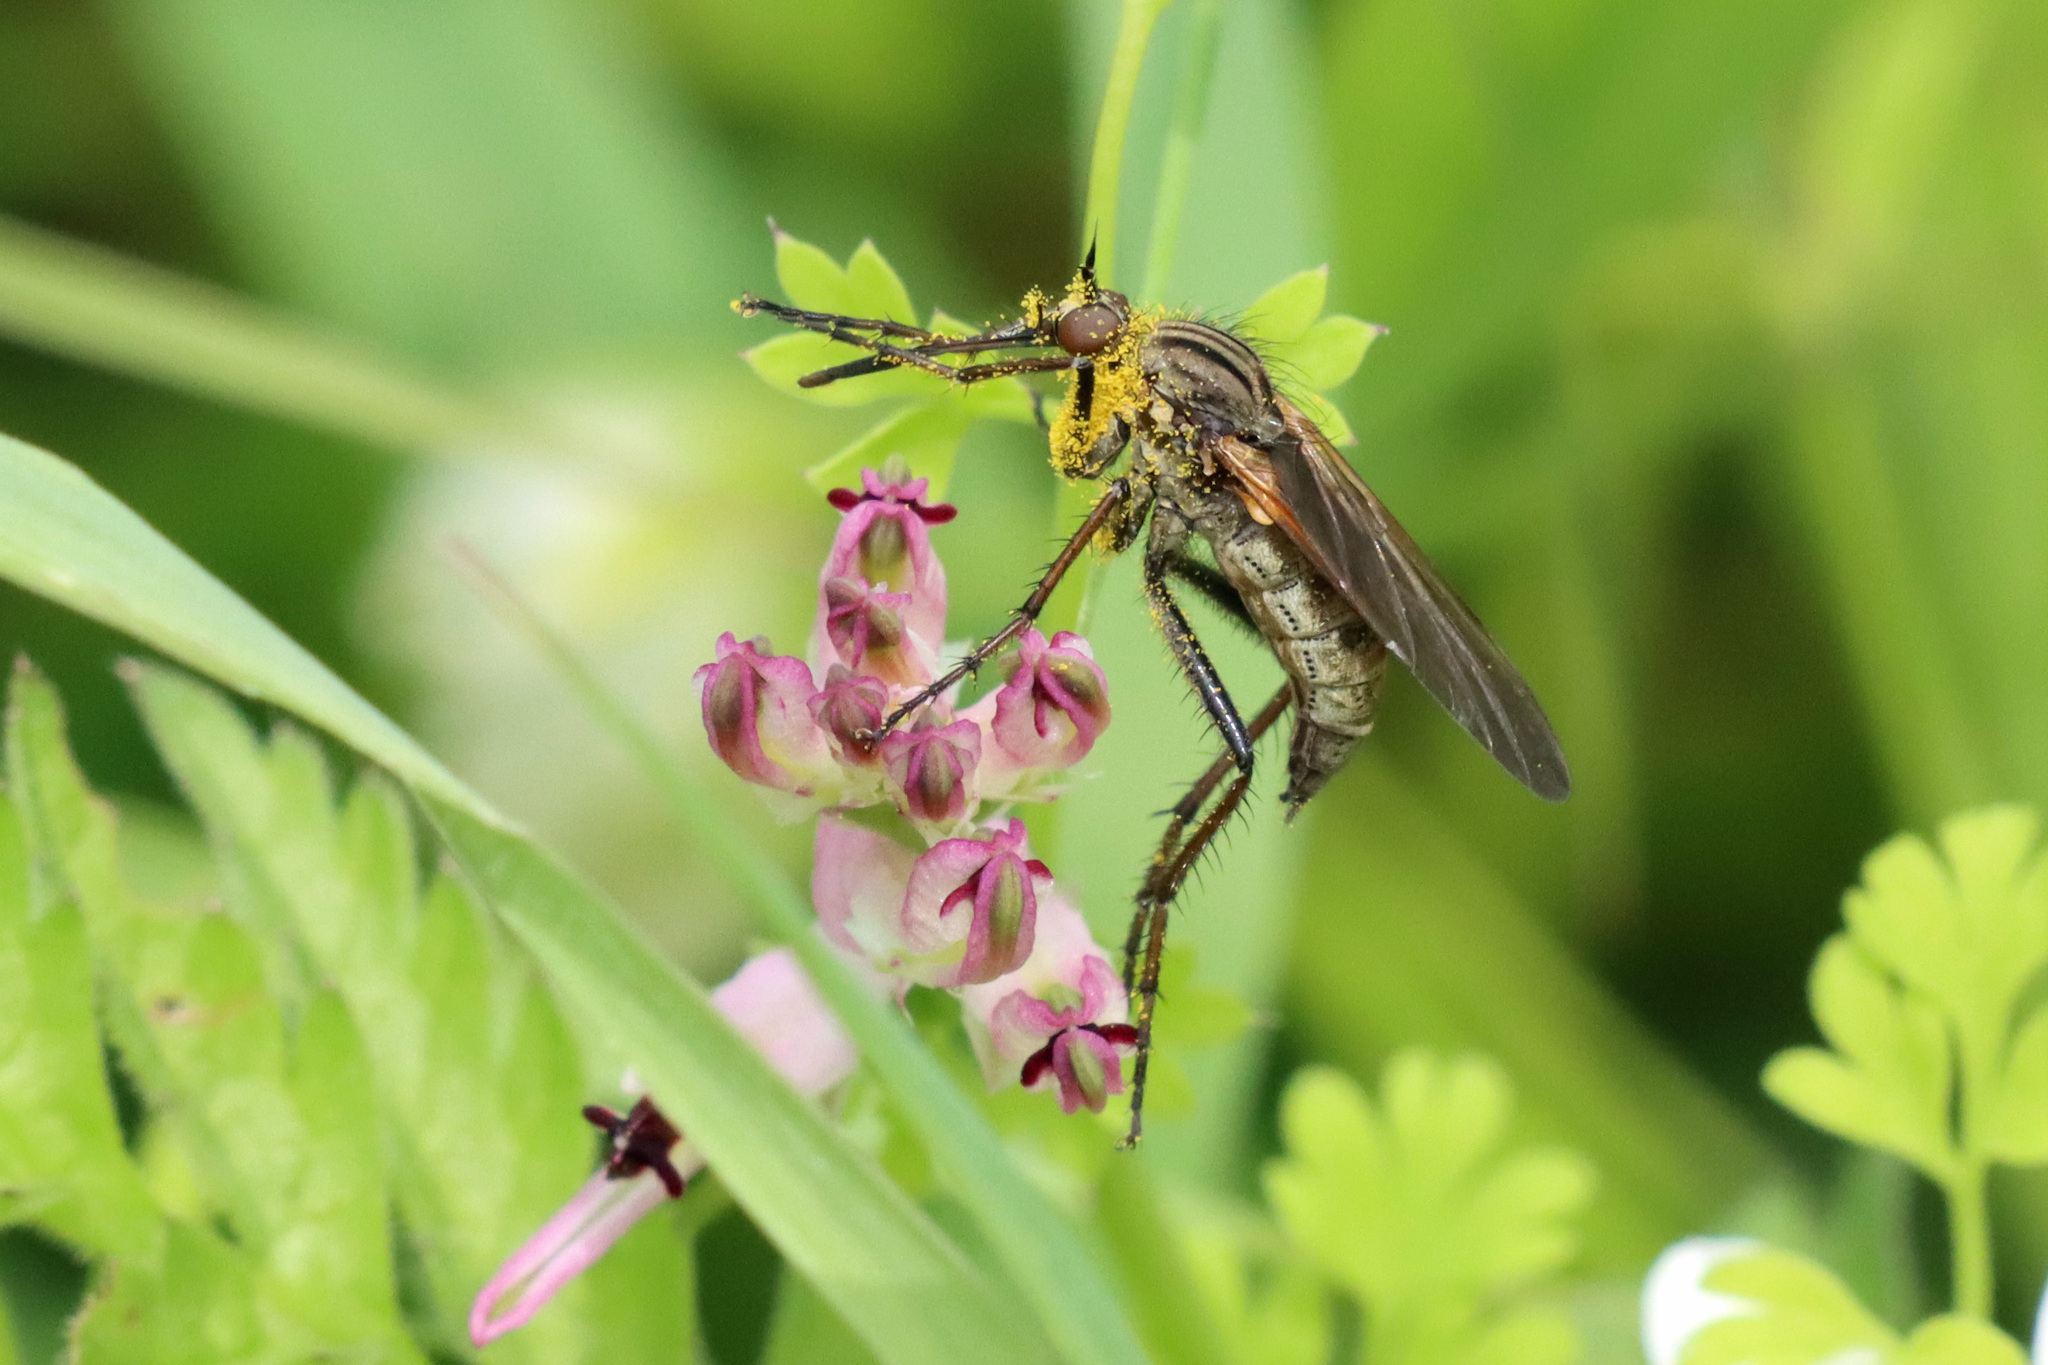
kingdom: Animalia
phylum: Arthropoda
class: Insecta
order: Diptera
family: Empididae
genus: Empis
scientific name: Empis tessellata
